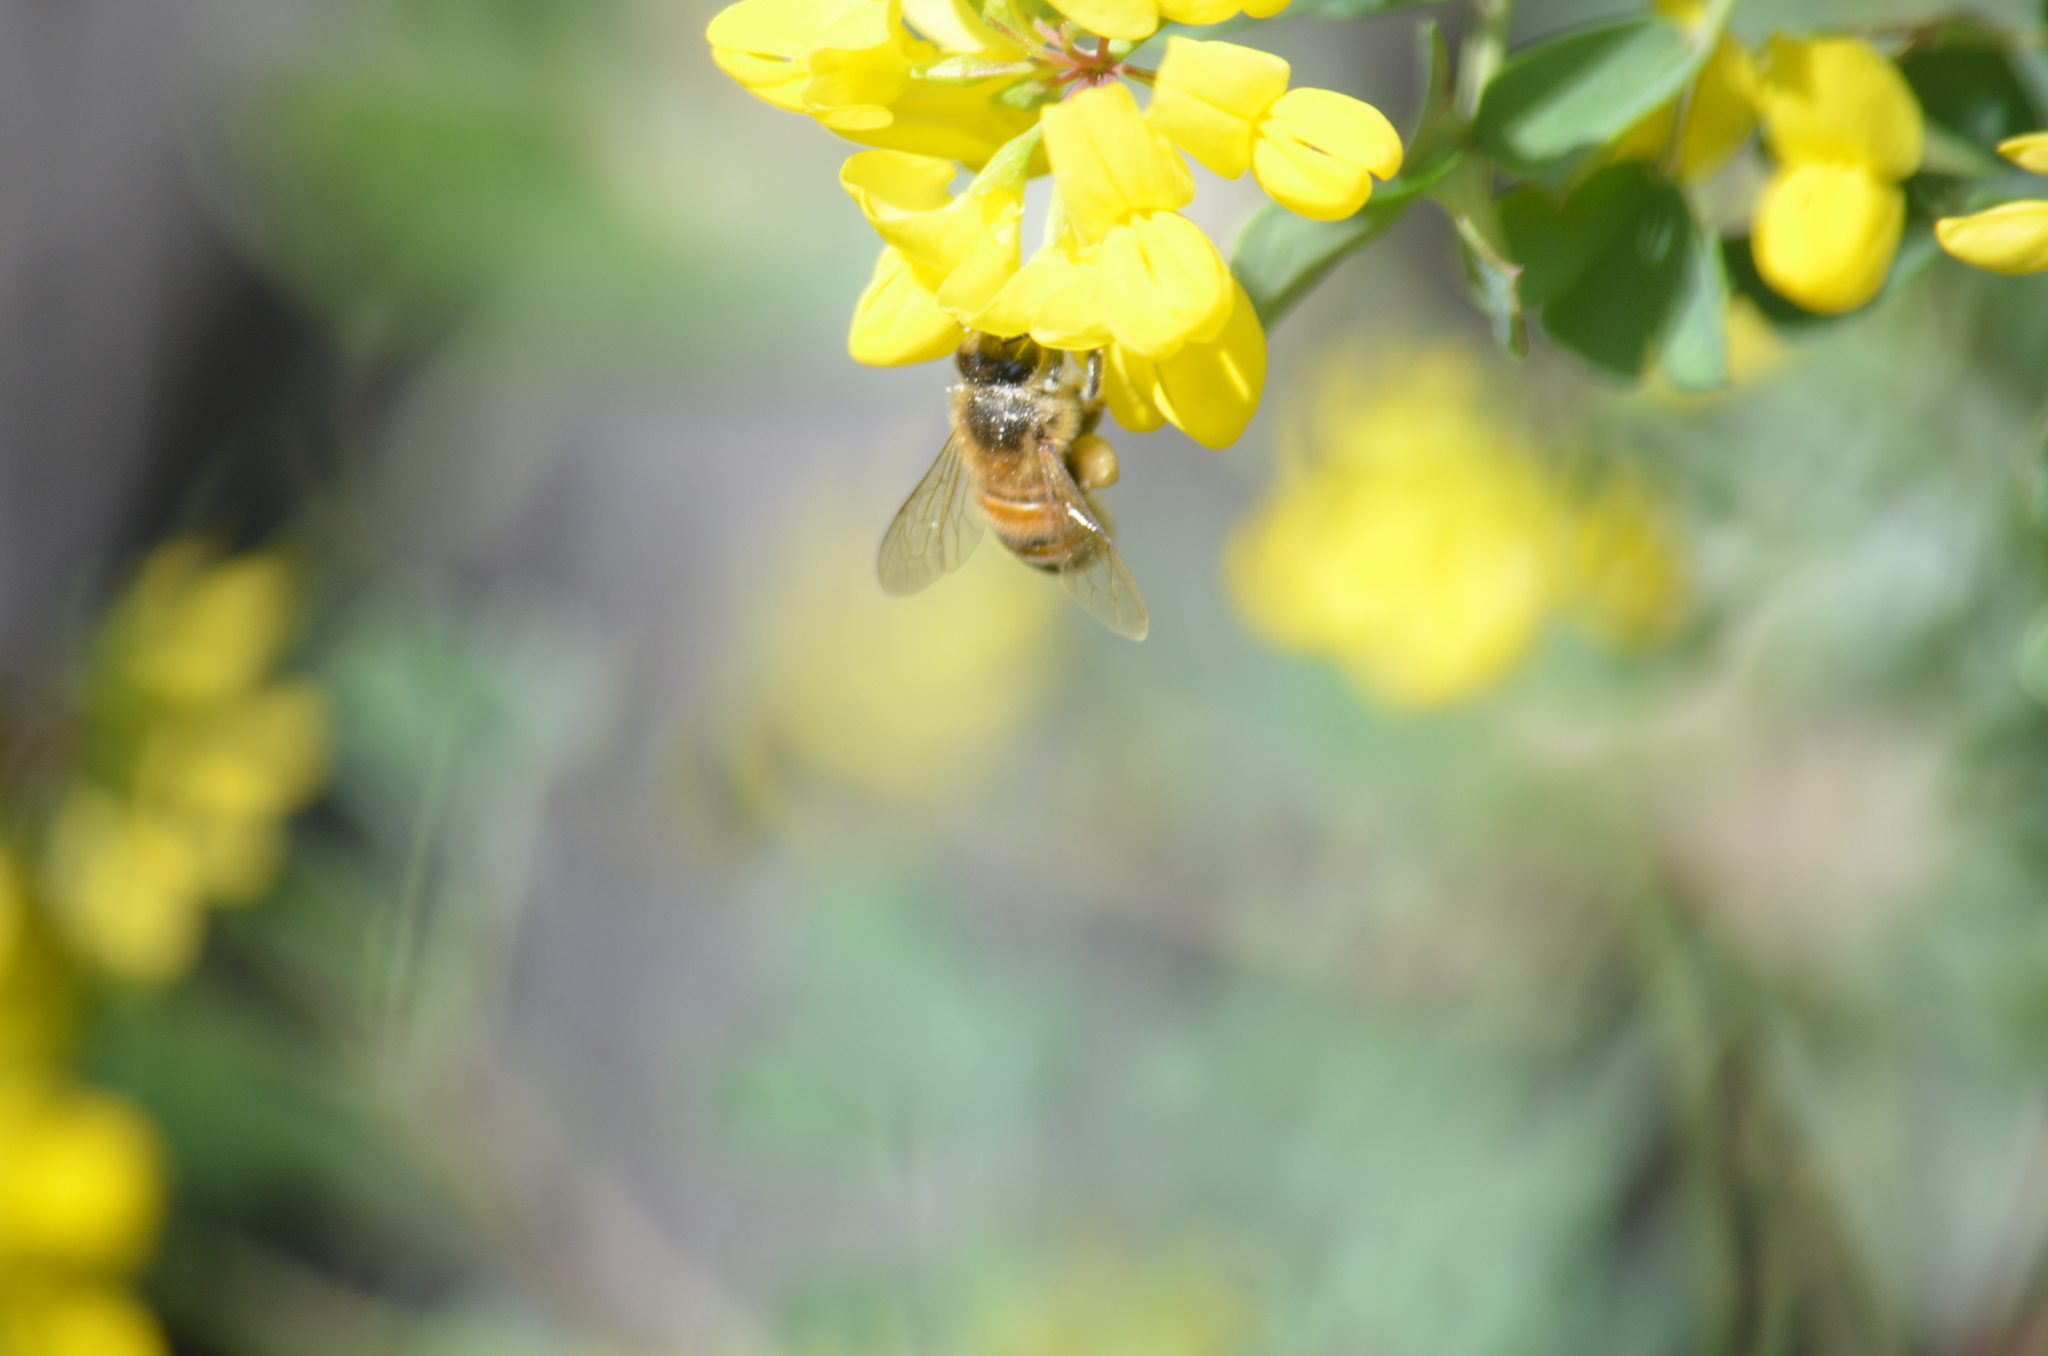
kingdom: Animalia
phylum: Arthropoda
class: Insecta
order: Hymenoptera
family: Apidae
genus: Apis
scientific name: Apis mellifera
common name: Honey bee
